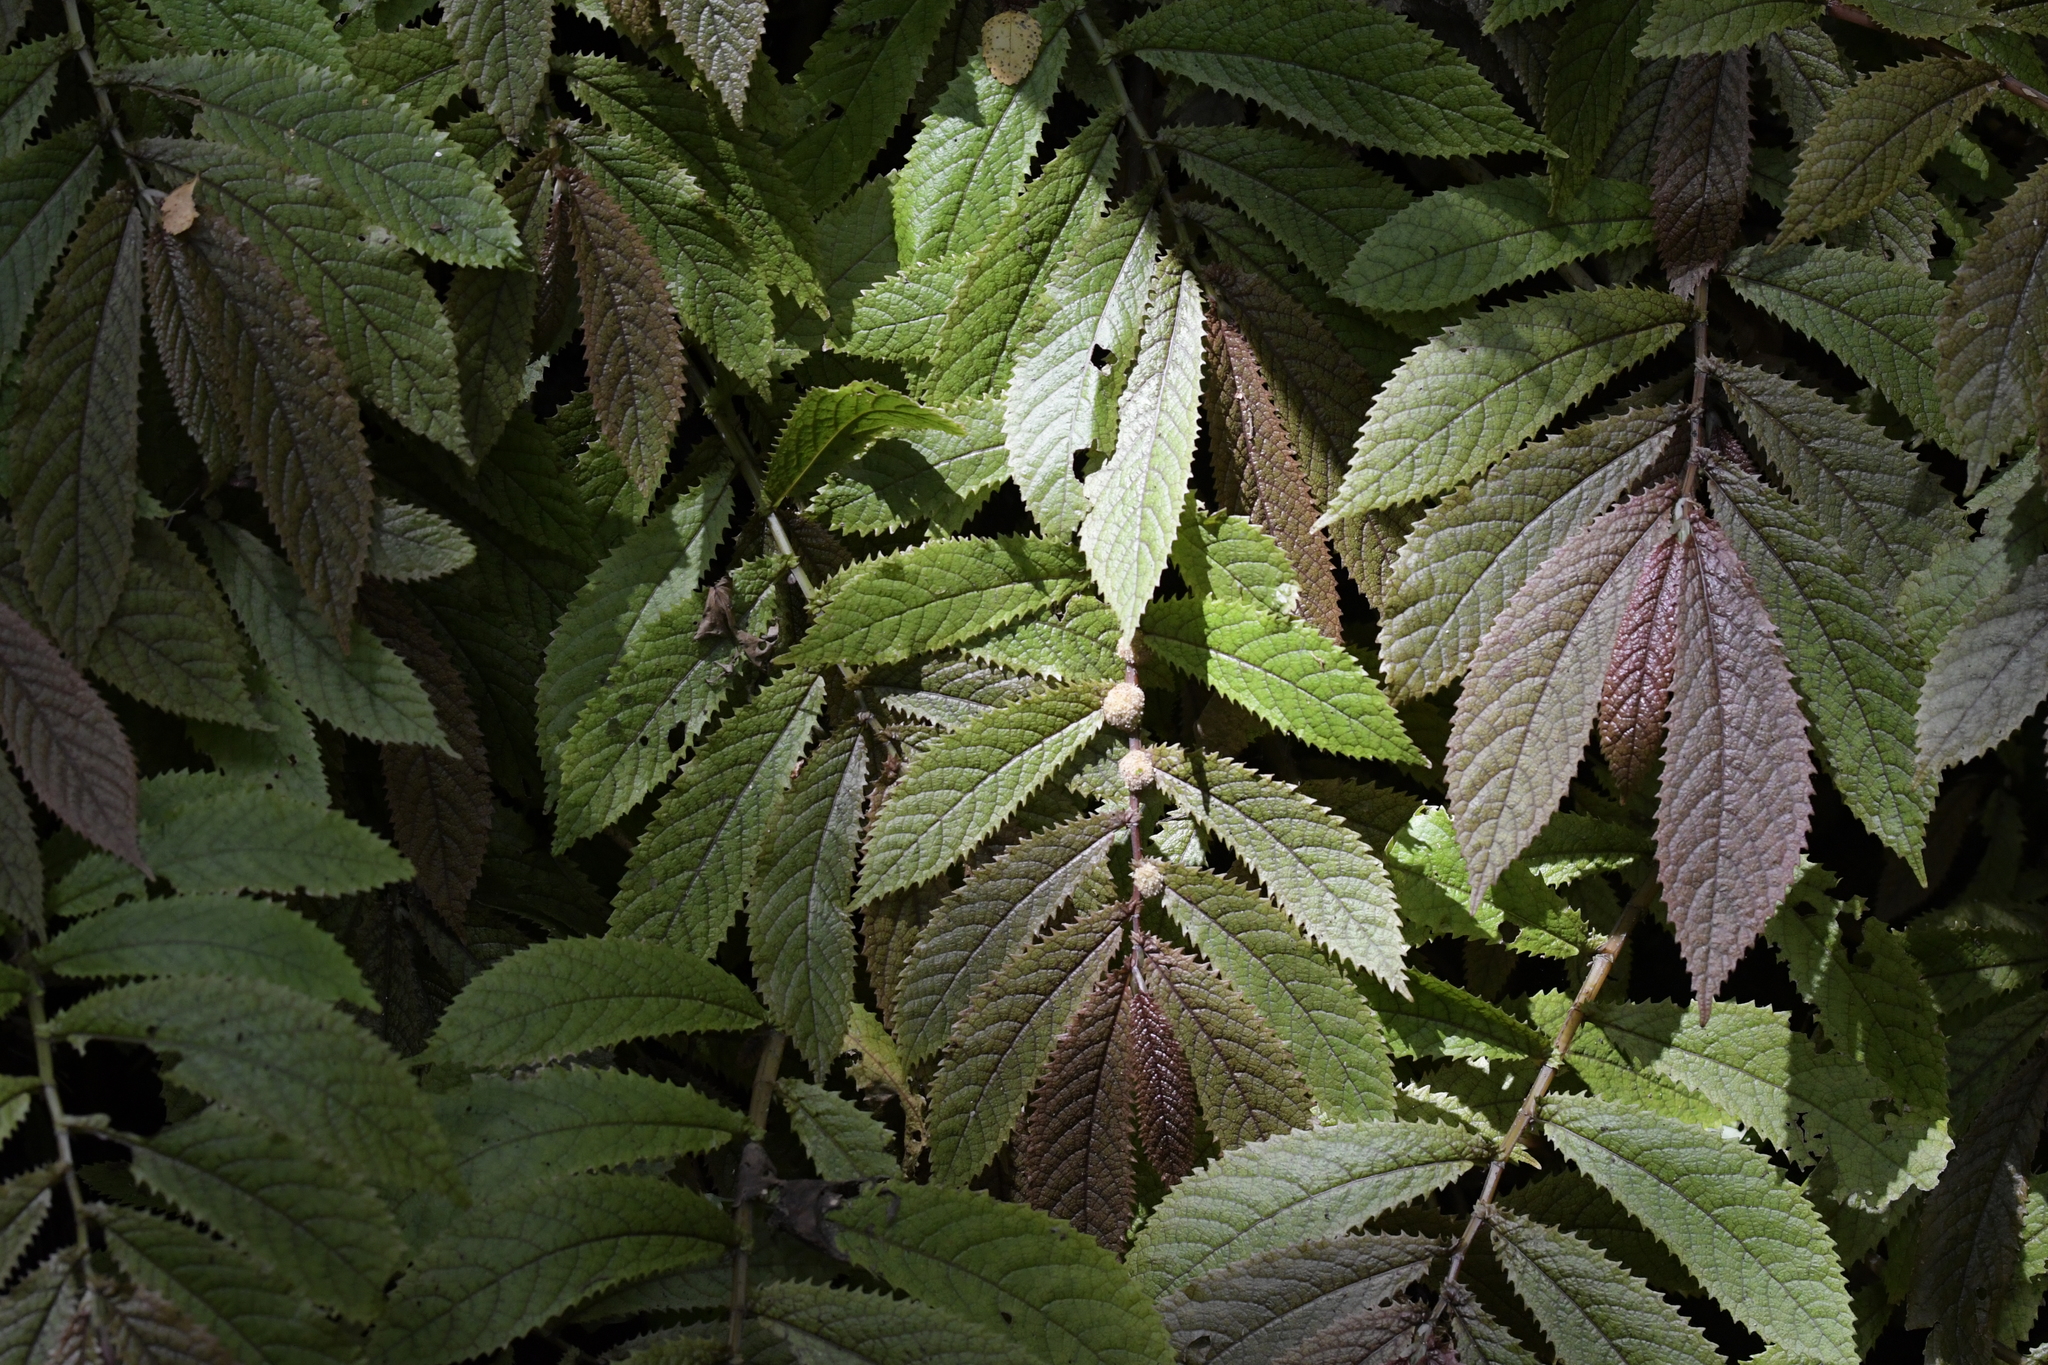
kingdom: Plantae
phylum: Tracheophyta
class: Magnoliopsida
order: Rosales
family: Urticaceae
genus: Elatostema
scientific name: Elatostema rugosum
